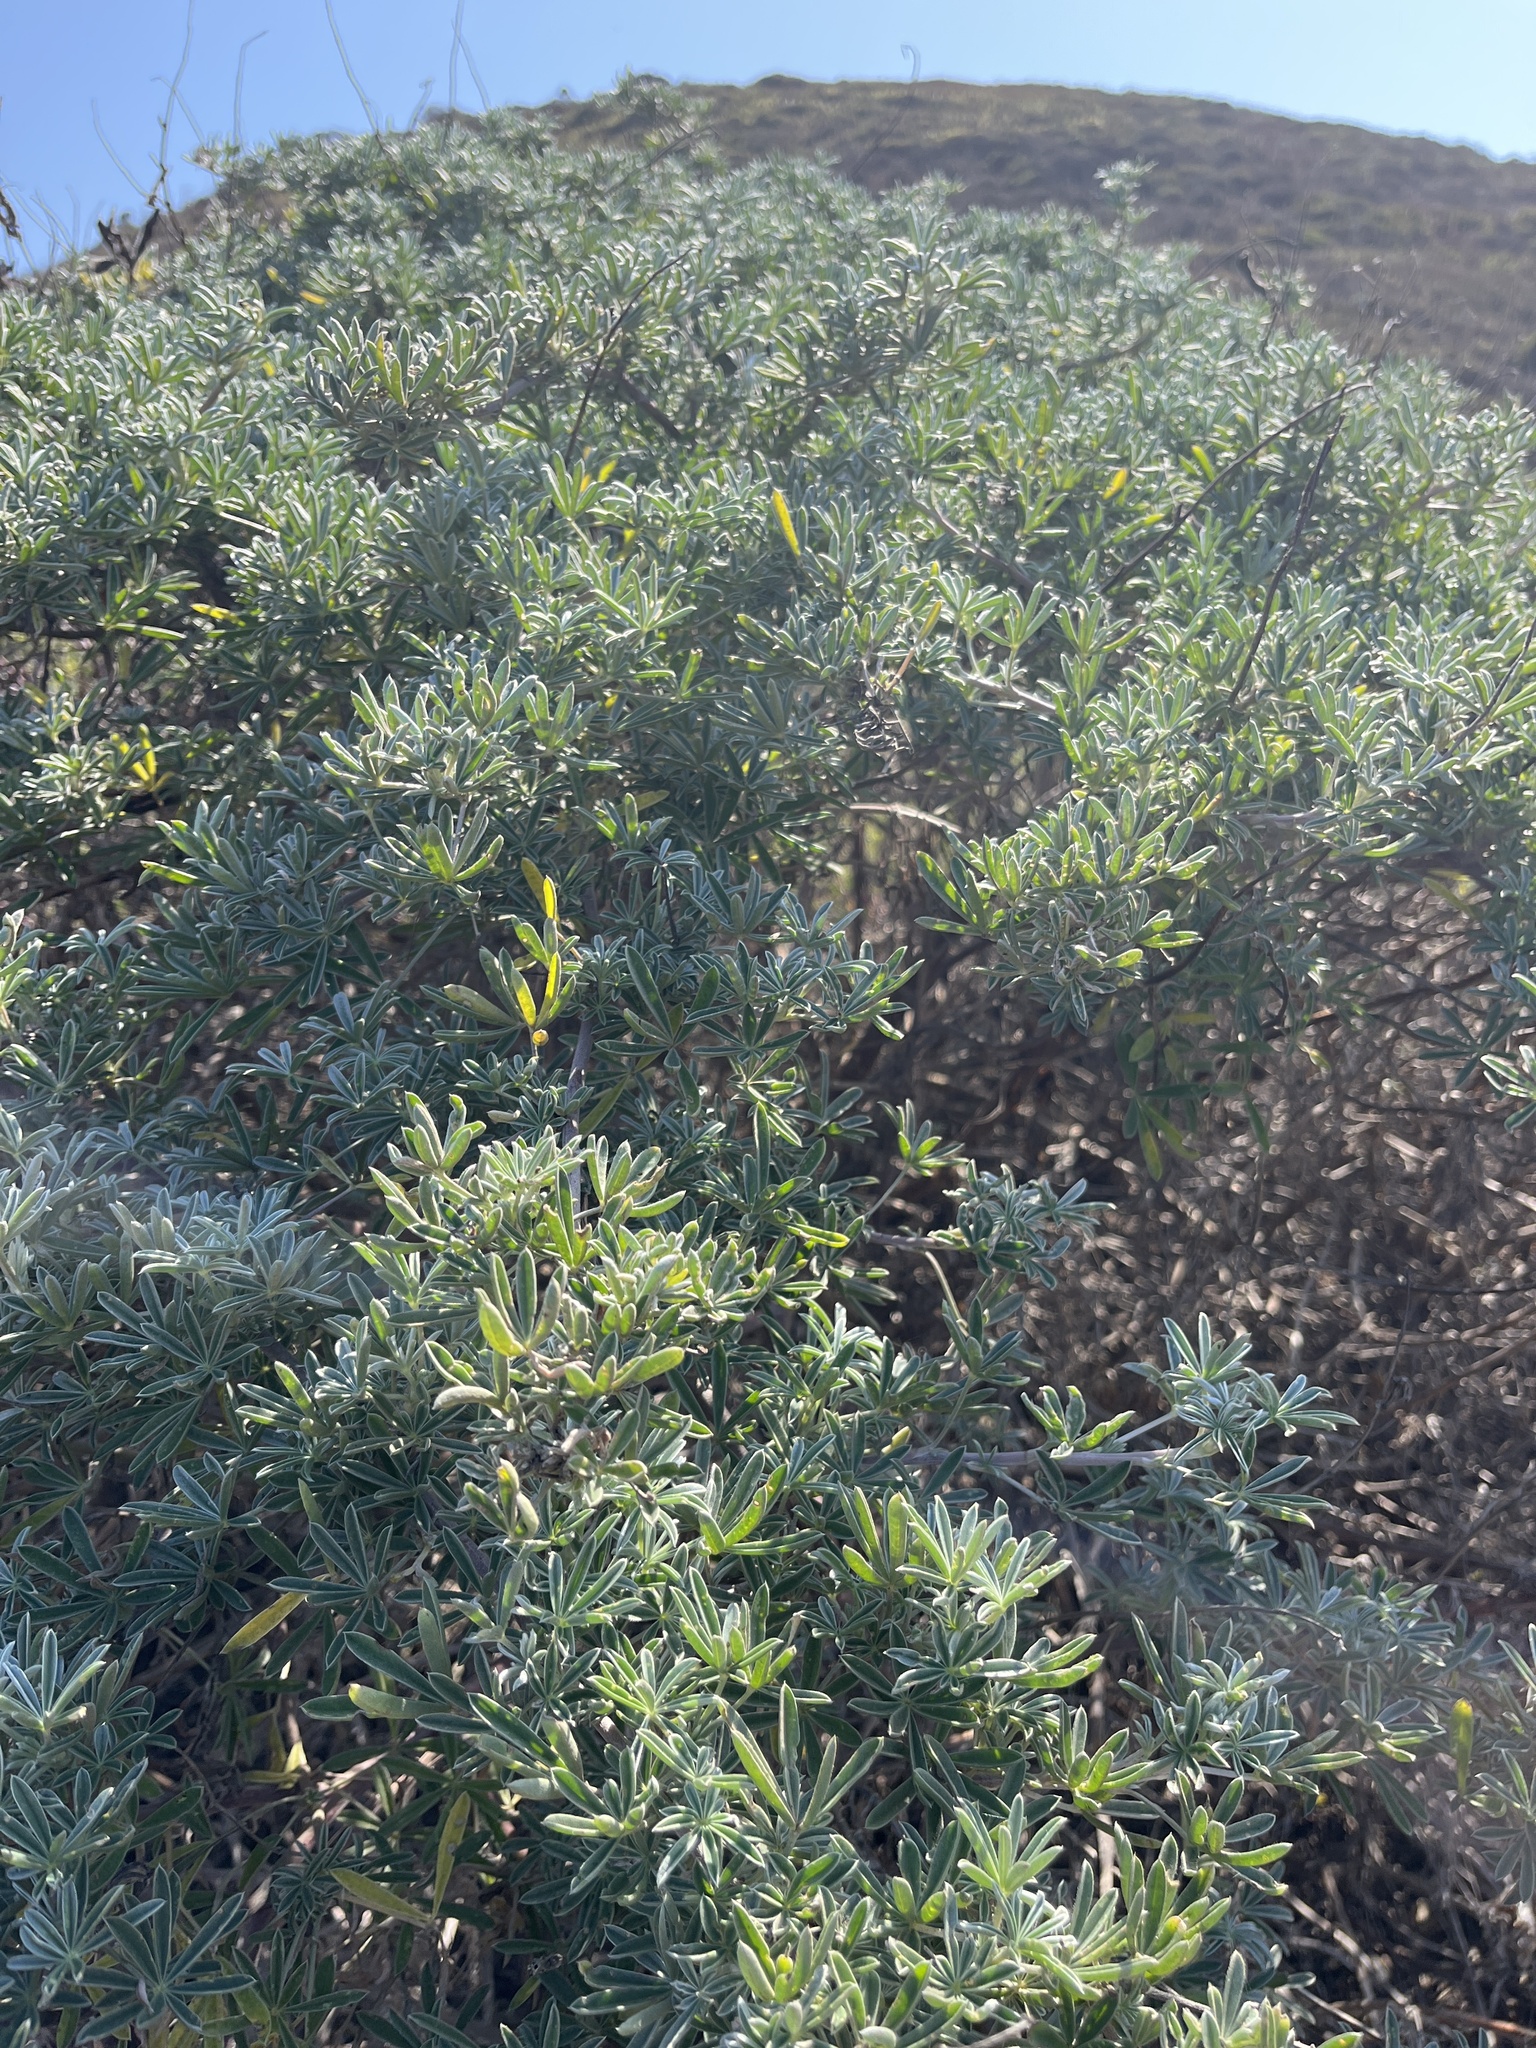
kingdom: Plantae
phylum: Tracheophyta
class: Magnoliopsida
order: Fabales
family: Fabaceae
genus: Lupinus
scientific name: Lupinus arboreus
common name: Yellow bush lupine
